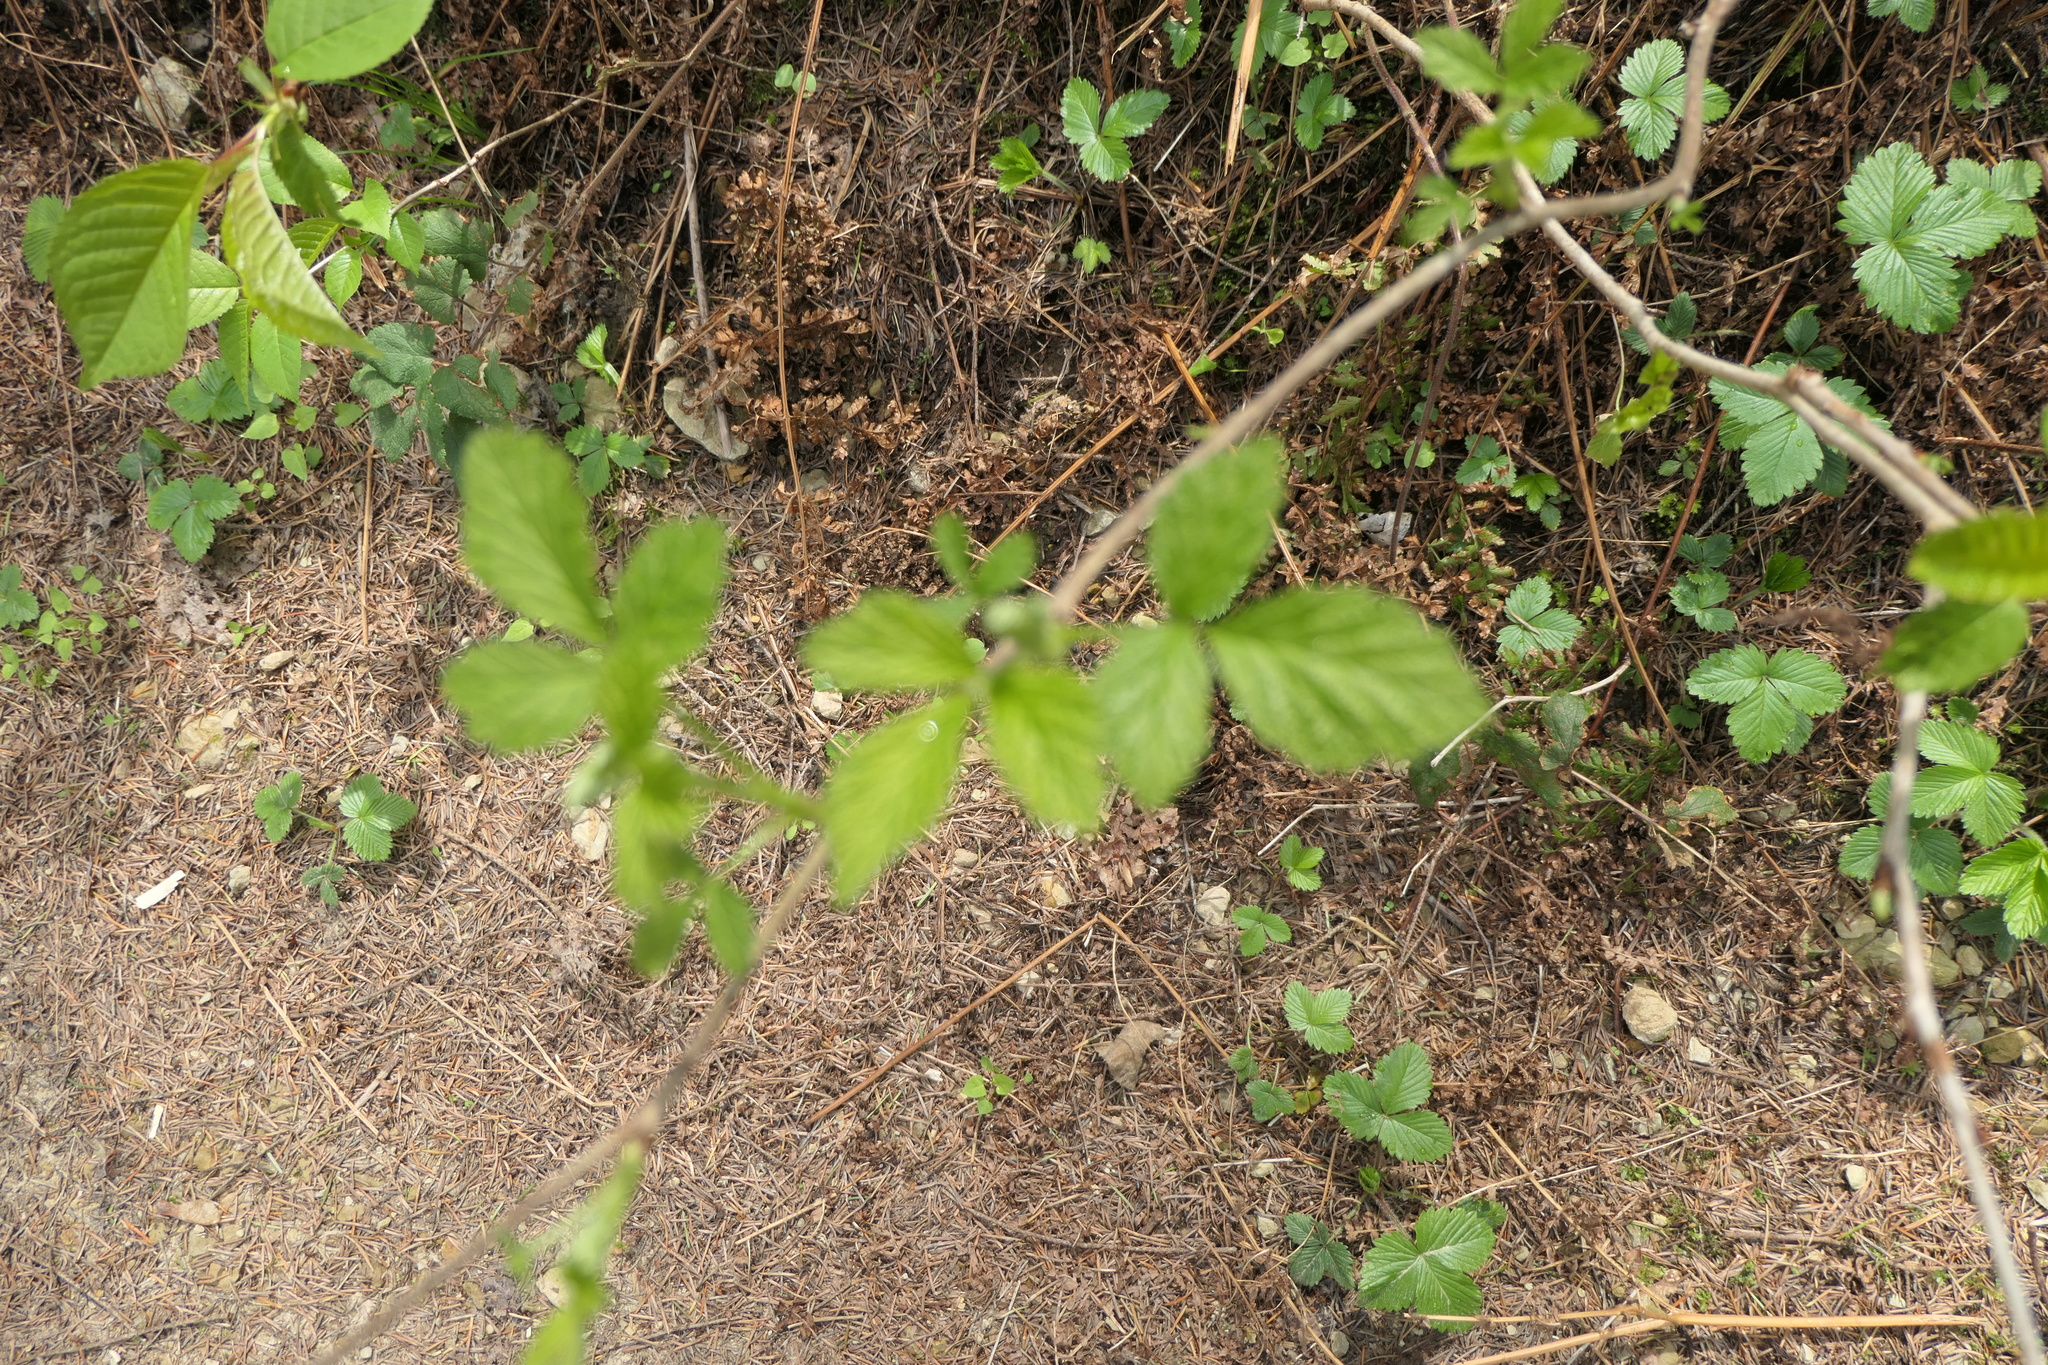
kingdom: Plantae
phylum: Tracheophyta
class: Magnoliopsida
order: Rosales
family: Rosaceae
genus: Rubus
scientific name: Rubus idaeus
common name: Raspberry
